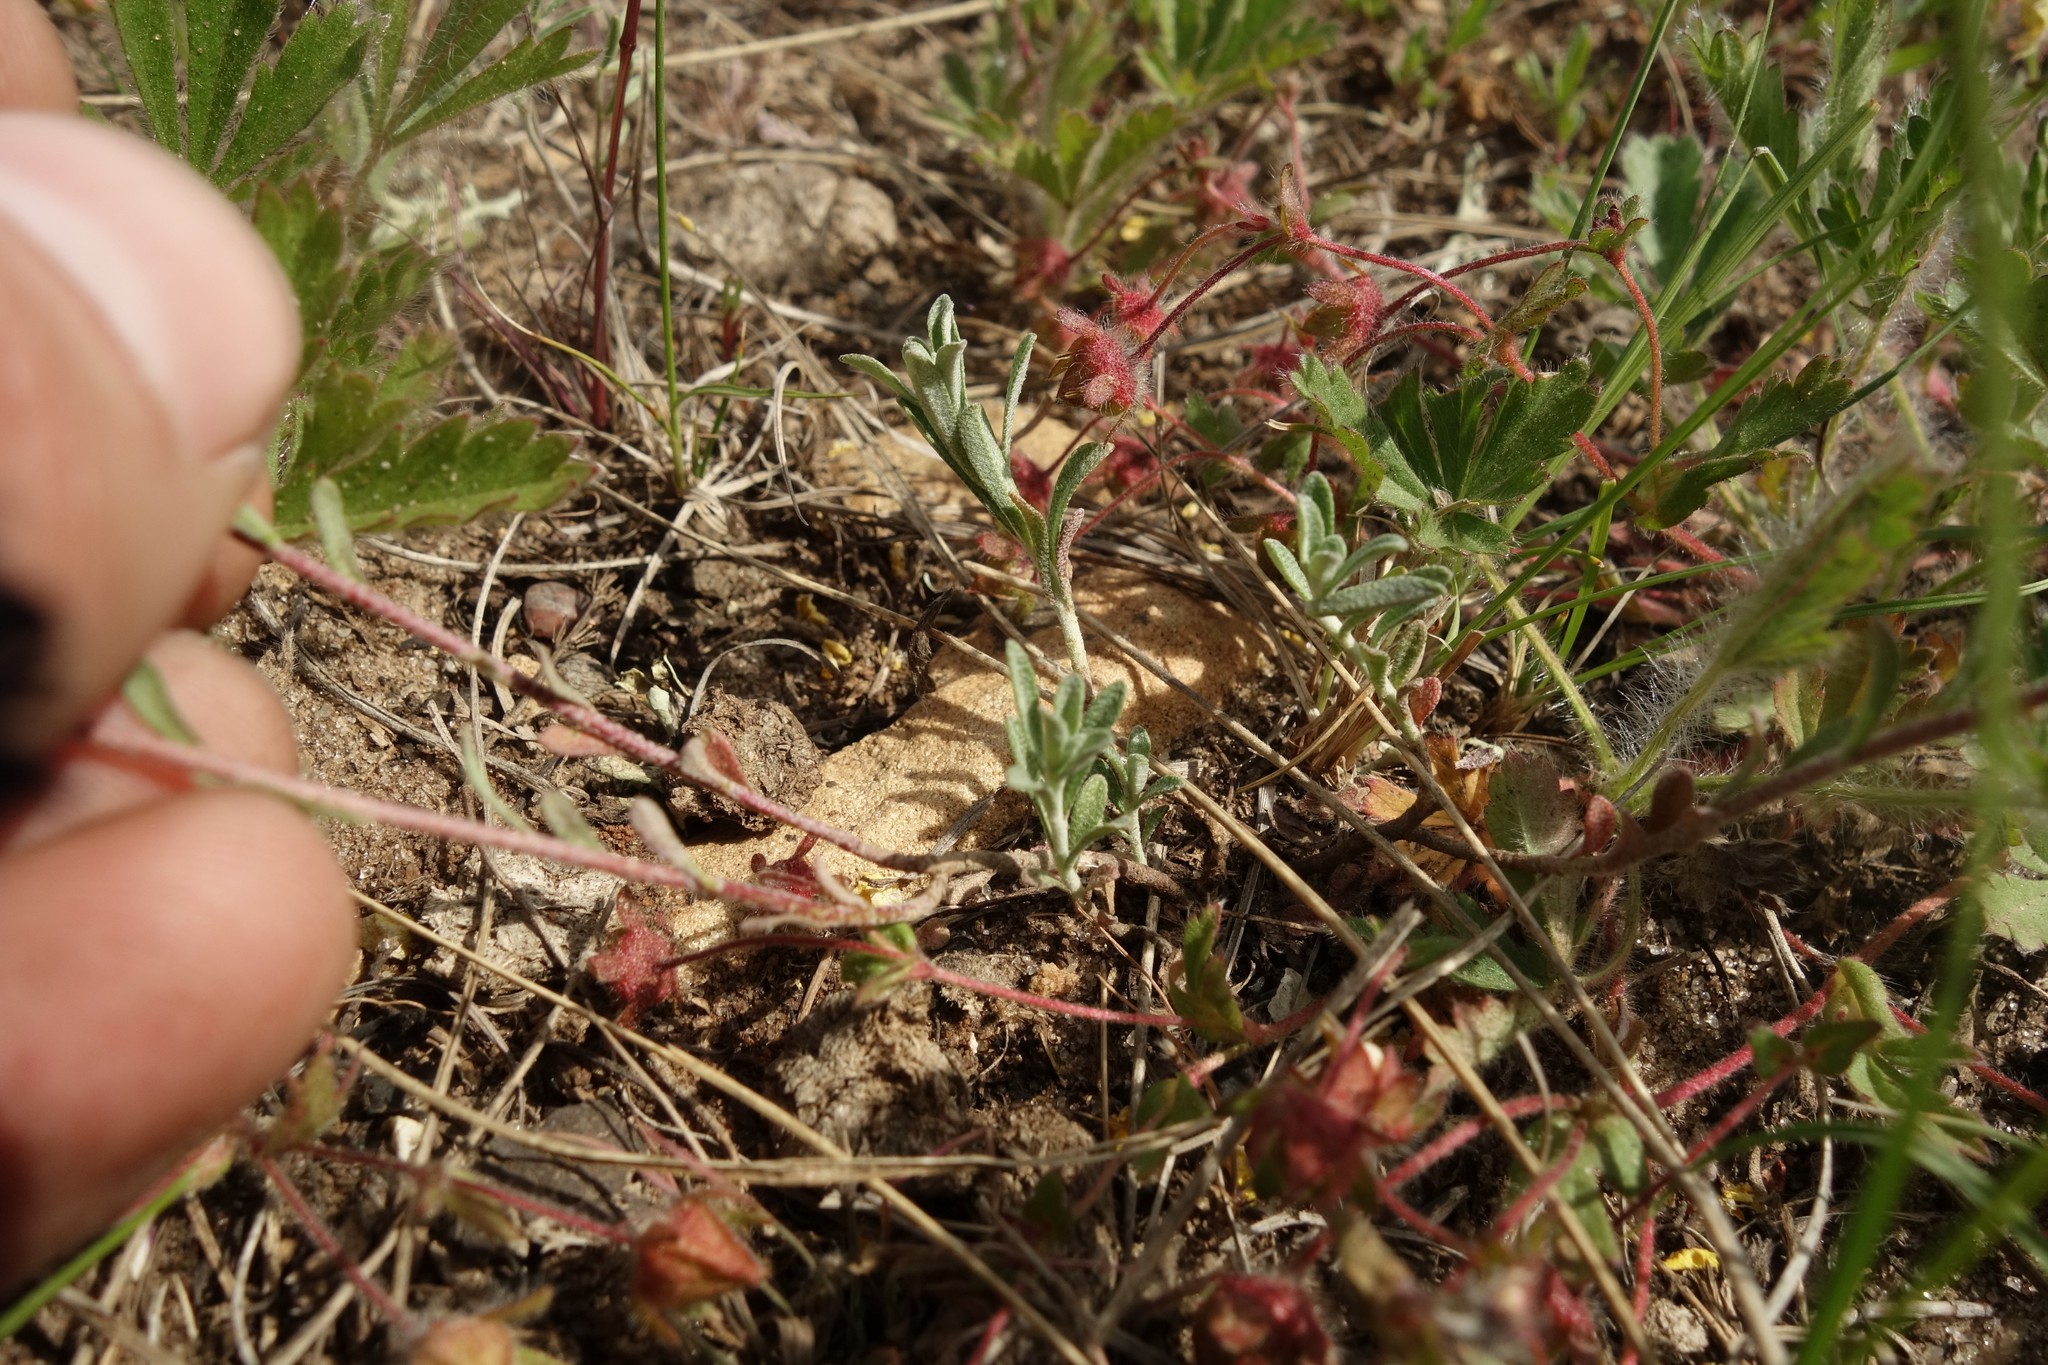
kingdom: Plantae
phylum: Tracheophyta
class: Magnoliopsida
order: Brassicales
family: Brassicaceae
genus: Odontarrhena
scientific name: Odontarrhena tortuosa
